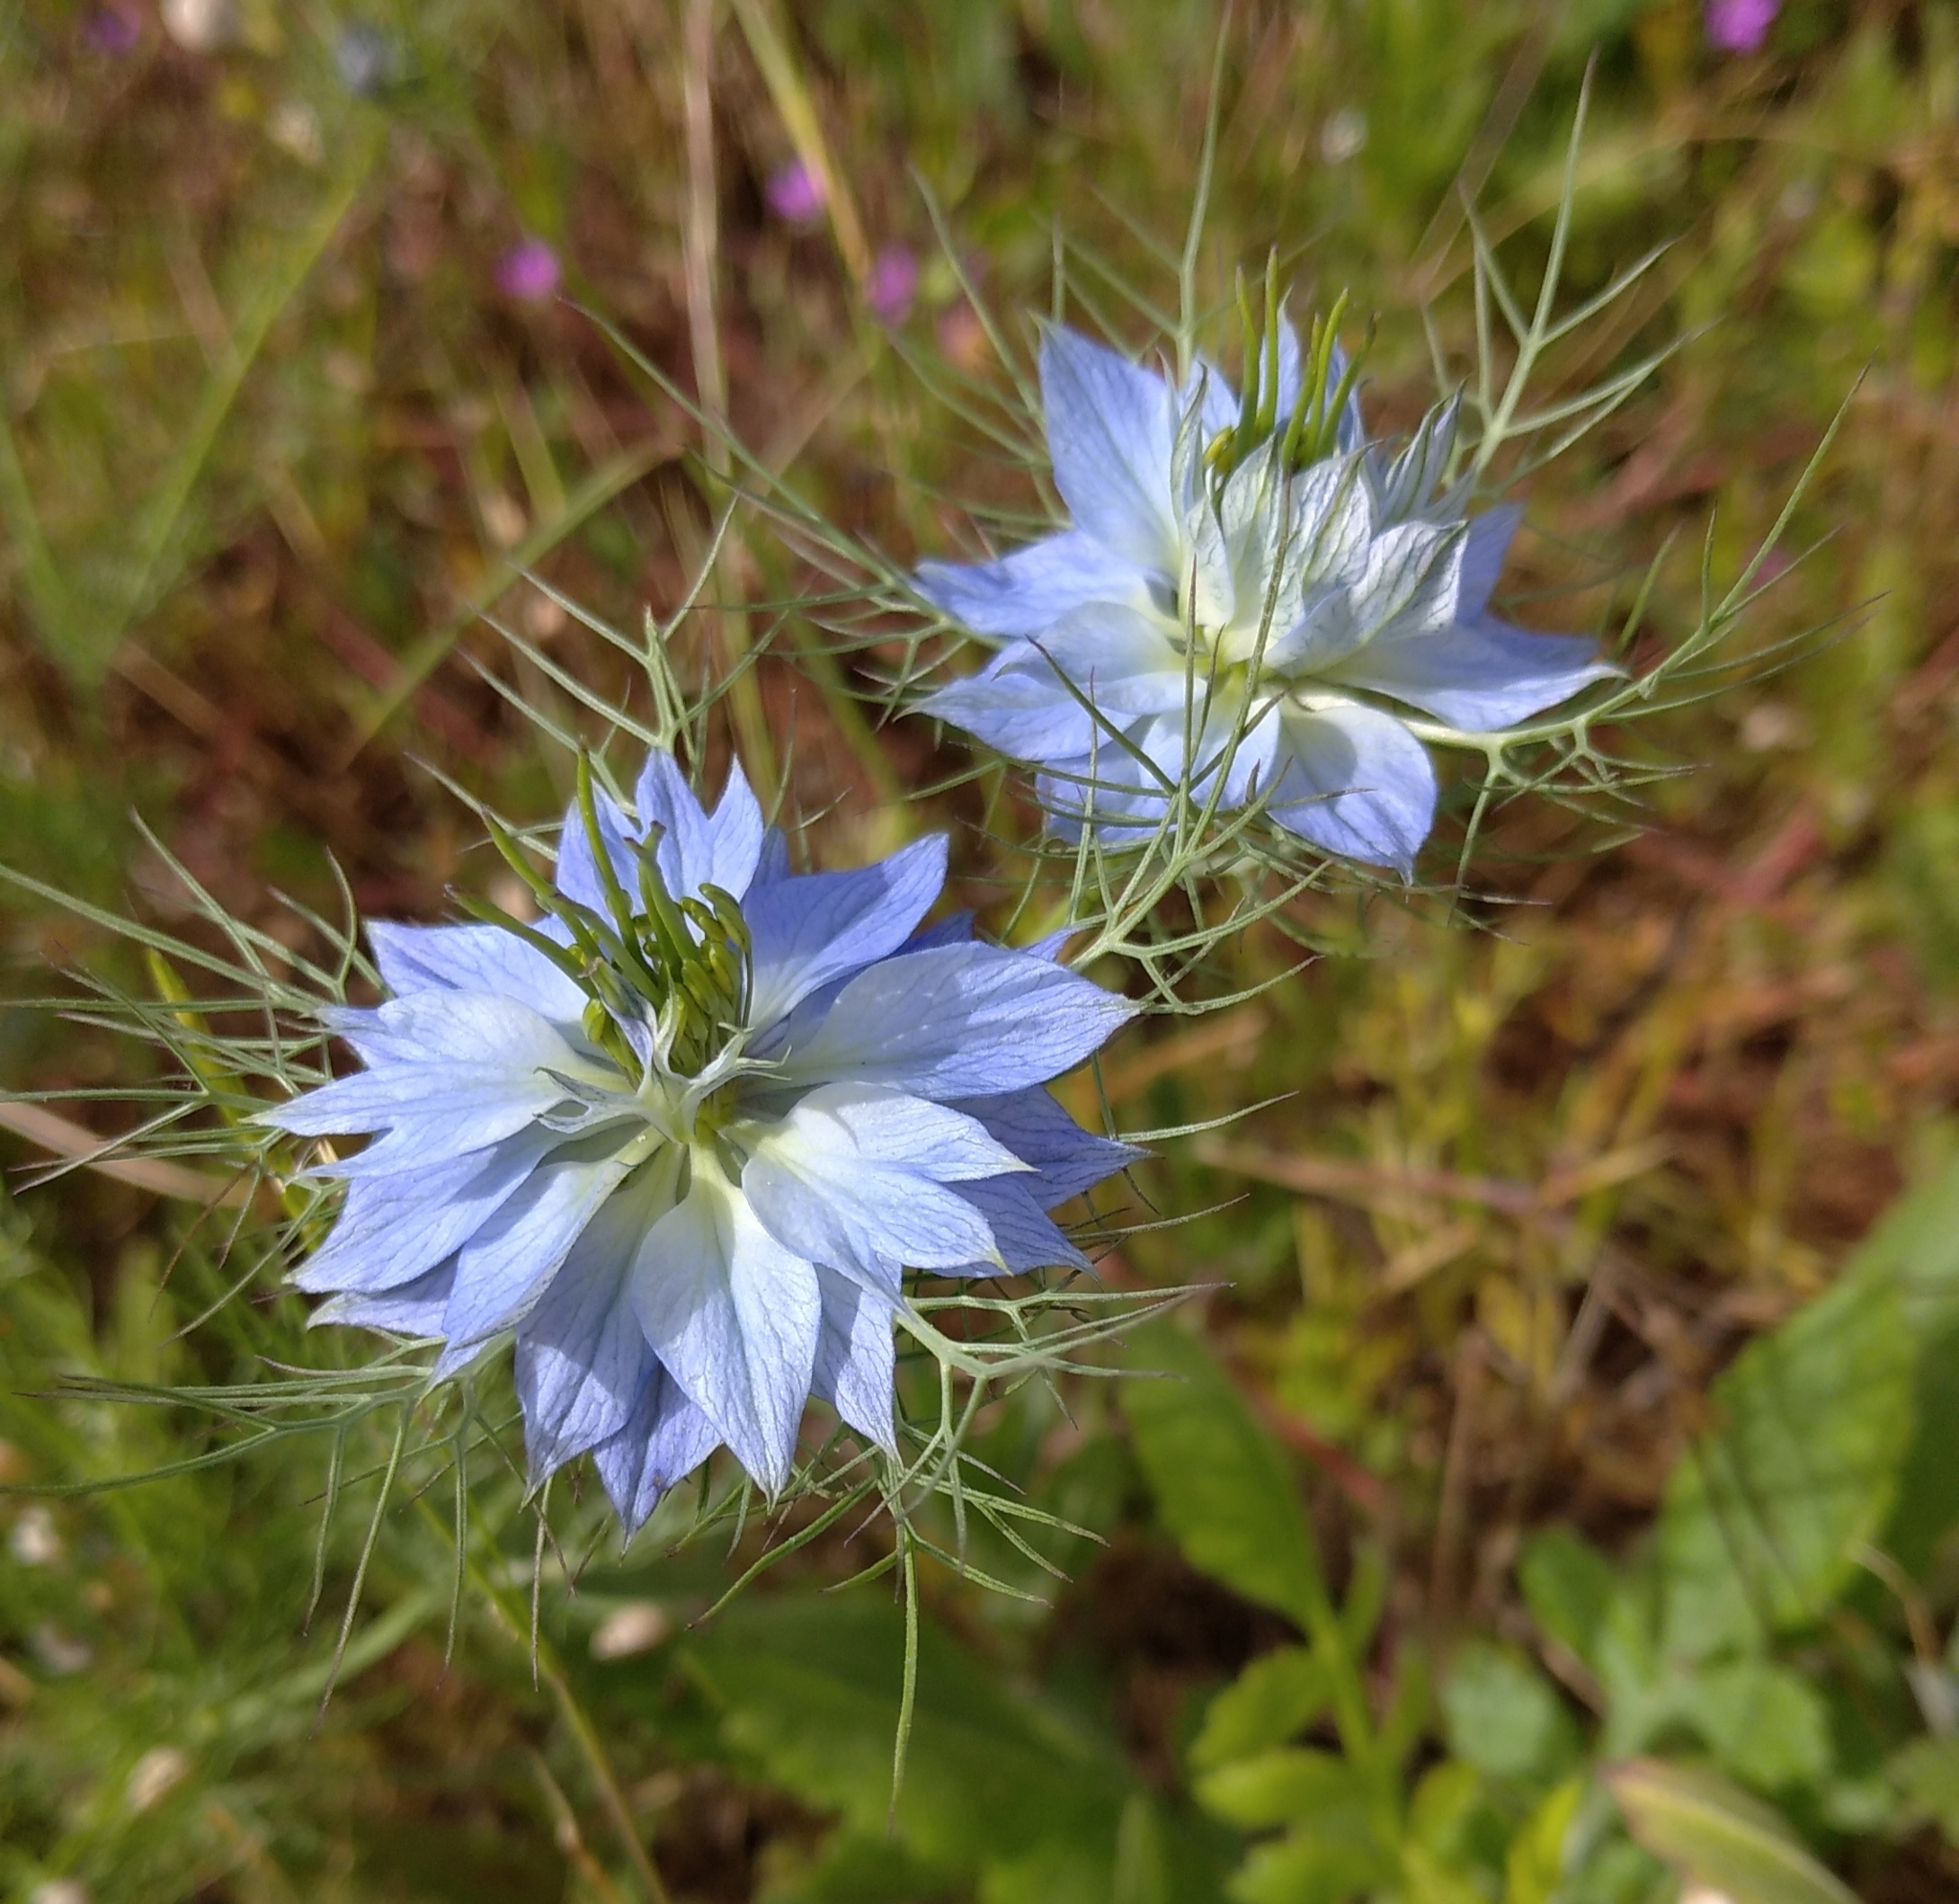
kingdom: Plantae
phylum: Tracheophyta
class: Magnoliopsida
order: Ranunculales
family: Ranunculaceae
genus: Nigella
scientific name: Nigella damascena
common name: Love-in-a-mist
